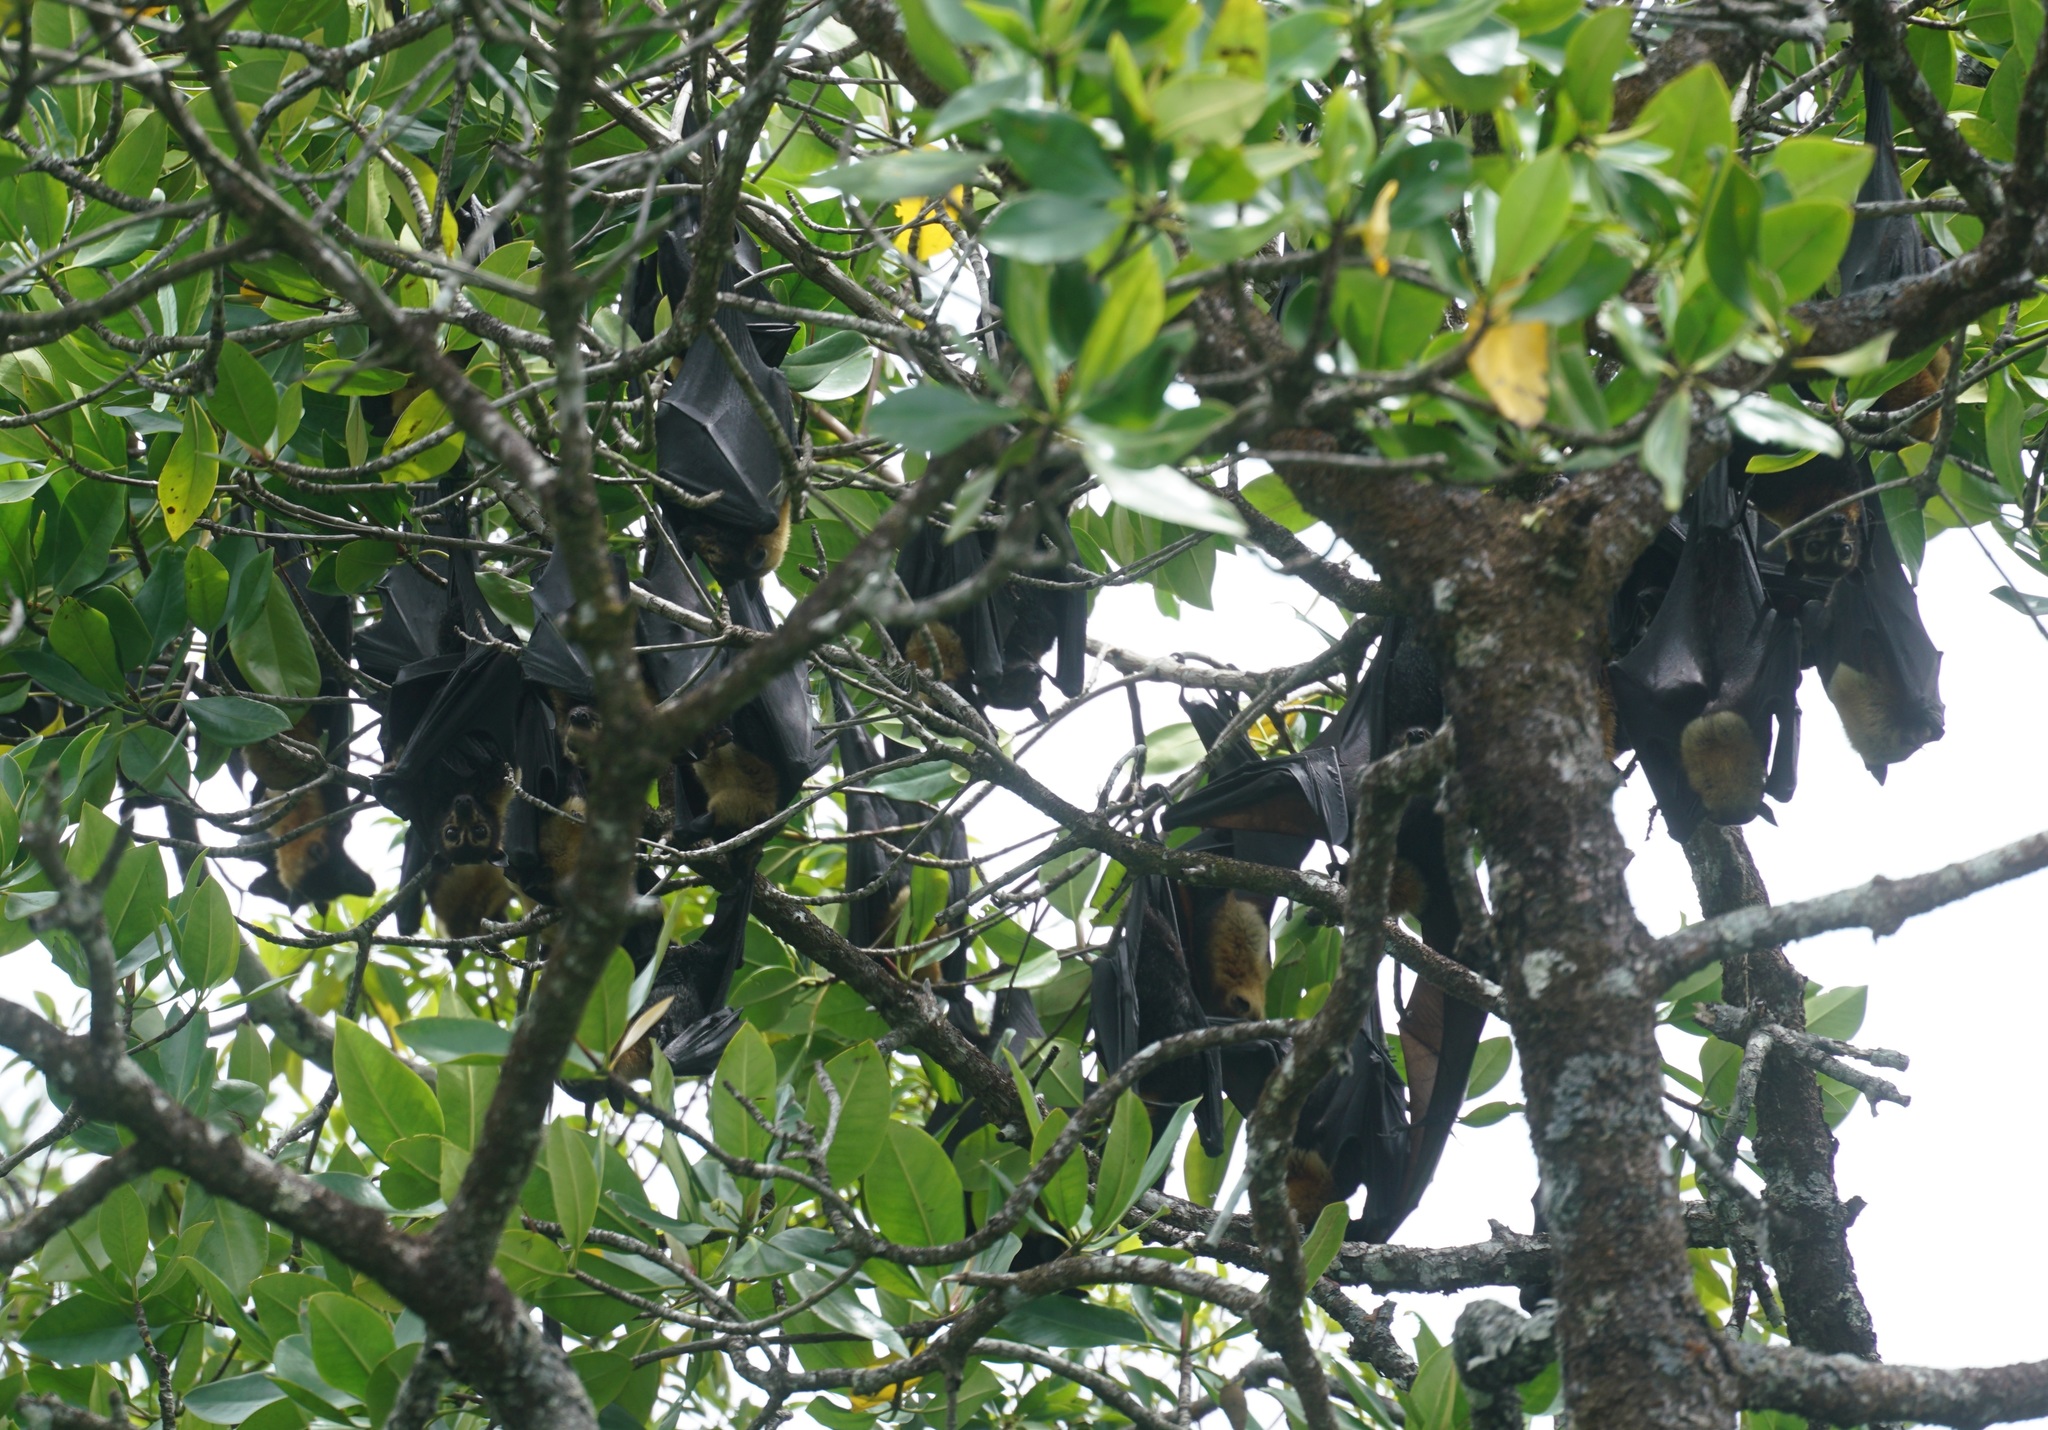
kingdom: Animalia
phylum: Chordata
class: Mammalia
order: Chiroptera
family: Pteropodidae
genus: Pteropus
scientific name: Pteropus conspicillatus
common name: Spectacled flying fox
